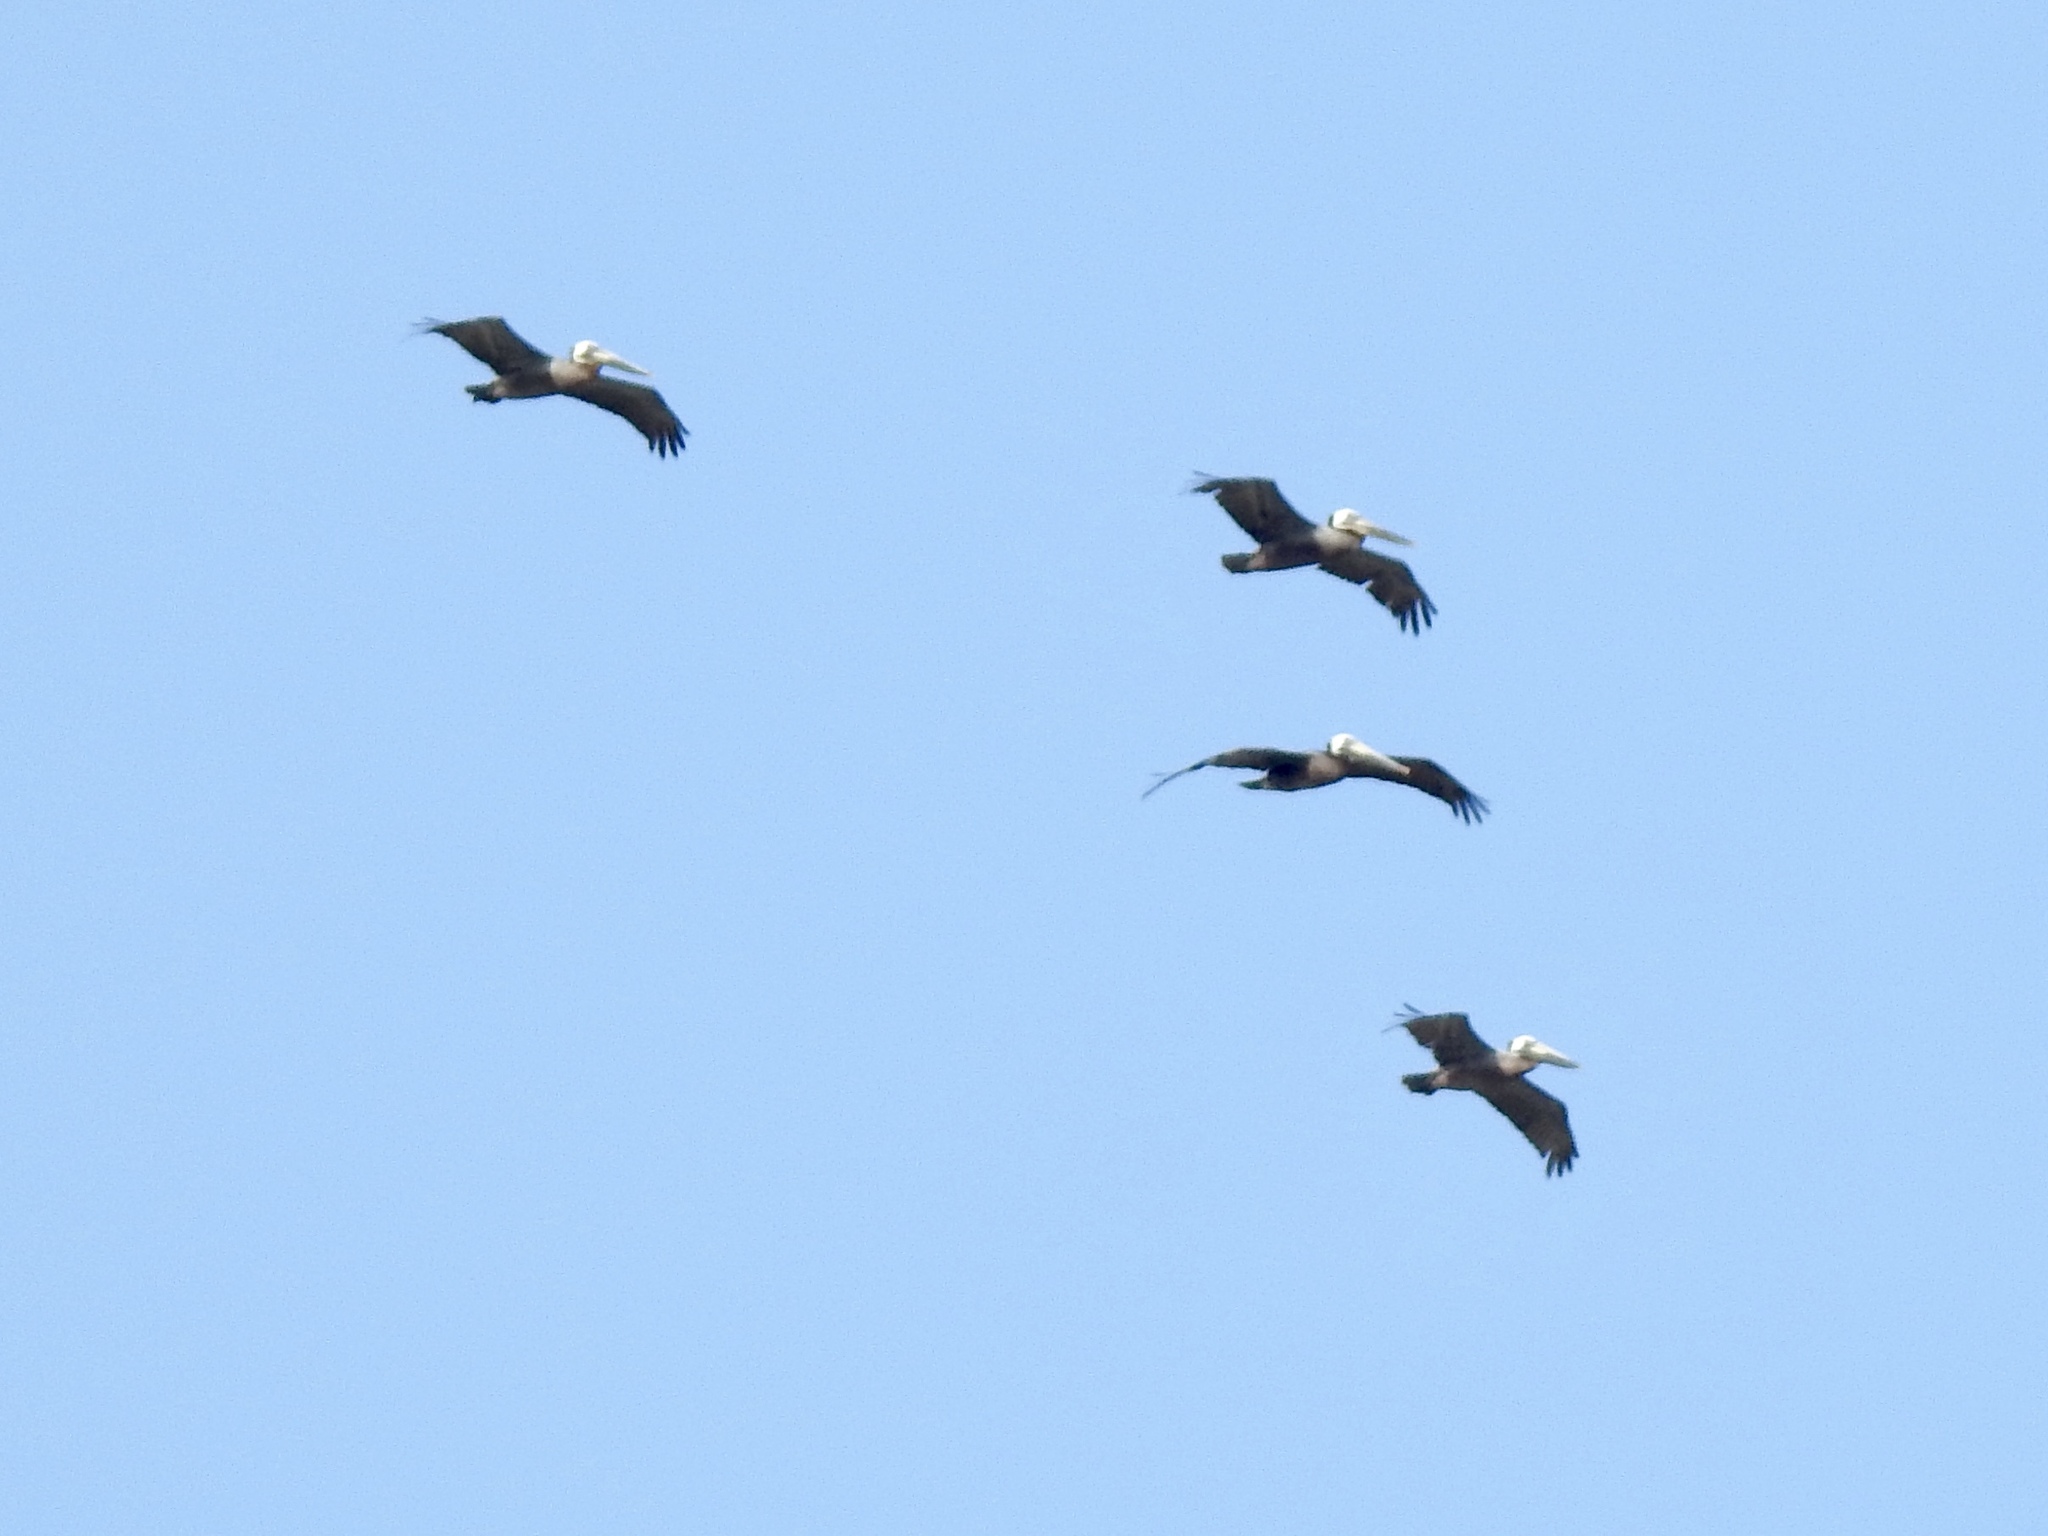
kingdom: Animalia
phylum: Chordata
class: Aves
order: Pelecaniformes
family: Pelecanidae
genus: Pelecanus
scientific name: Pelecanus occidentalis
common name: Brown pelican
